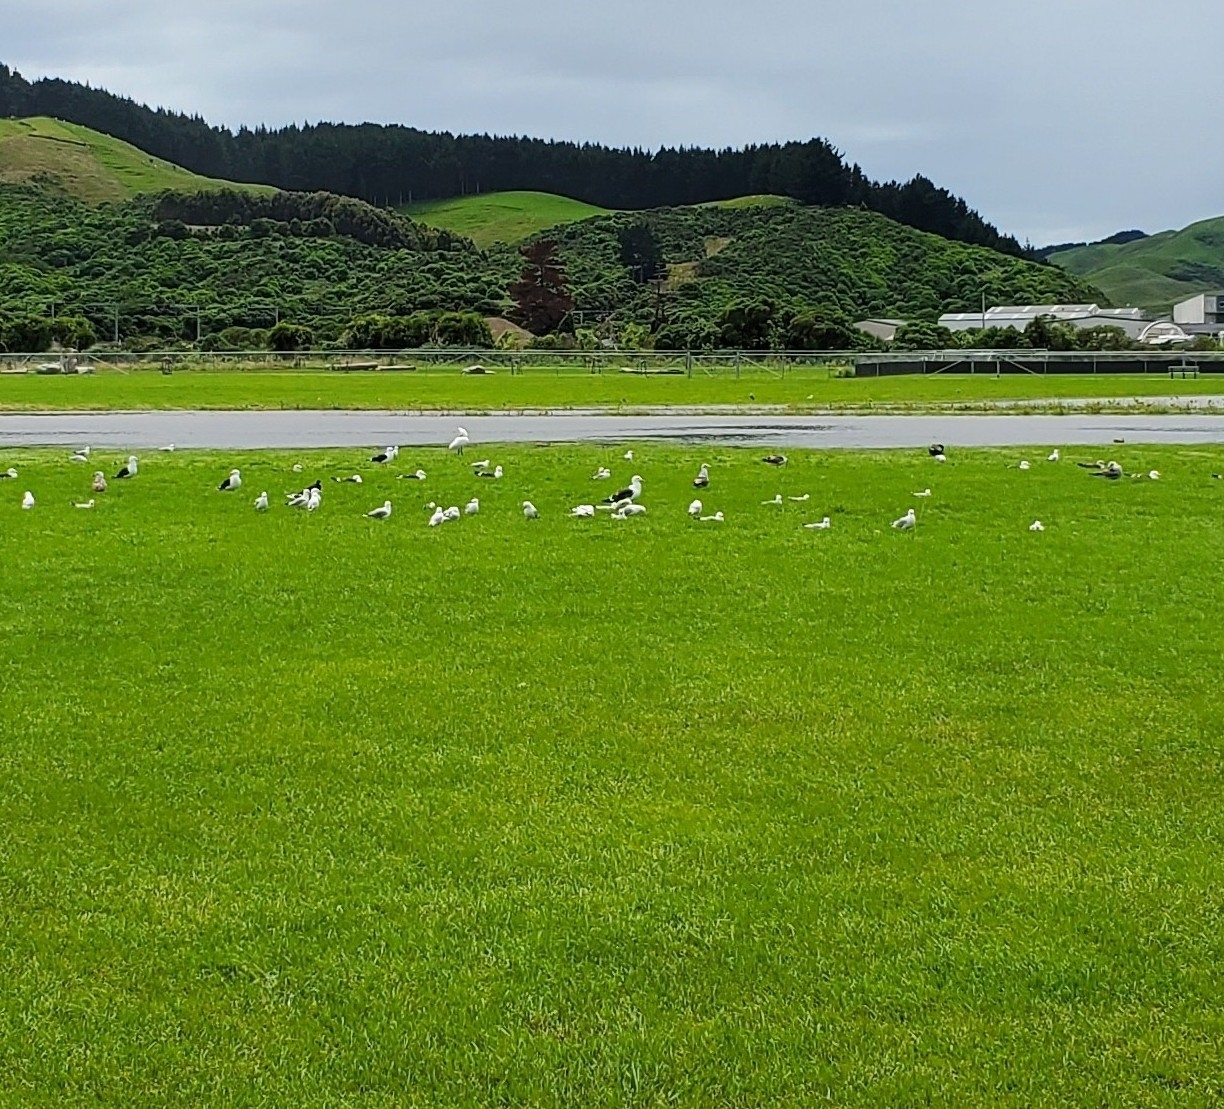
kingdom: Animalia
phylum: Chordata
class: Aves
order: Pelecaniformes
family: Threskiornithidae
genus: Platalea
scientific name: Platalea regia
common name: Royal spoonbill
